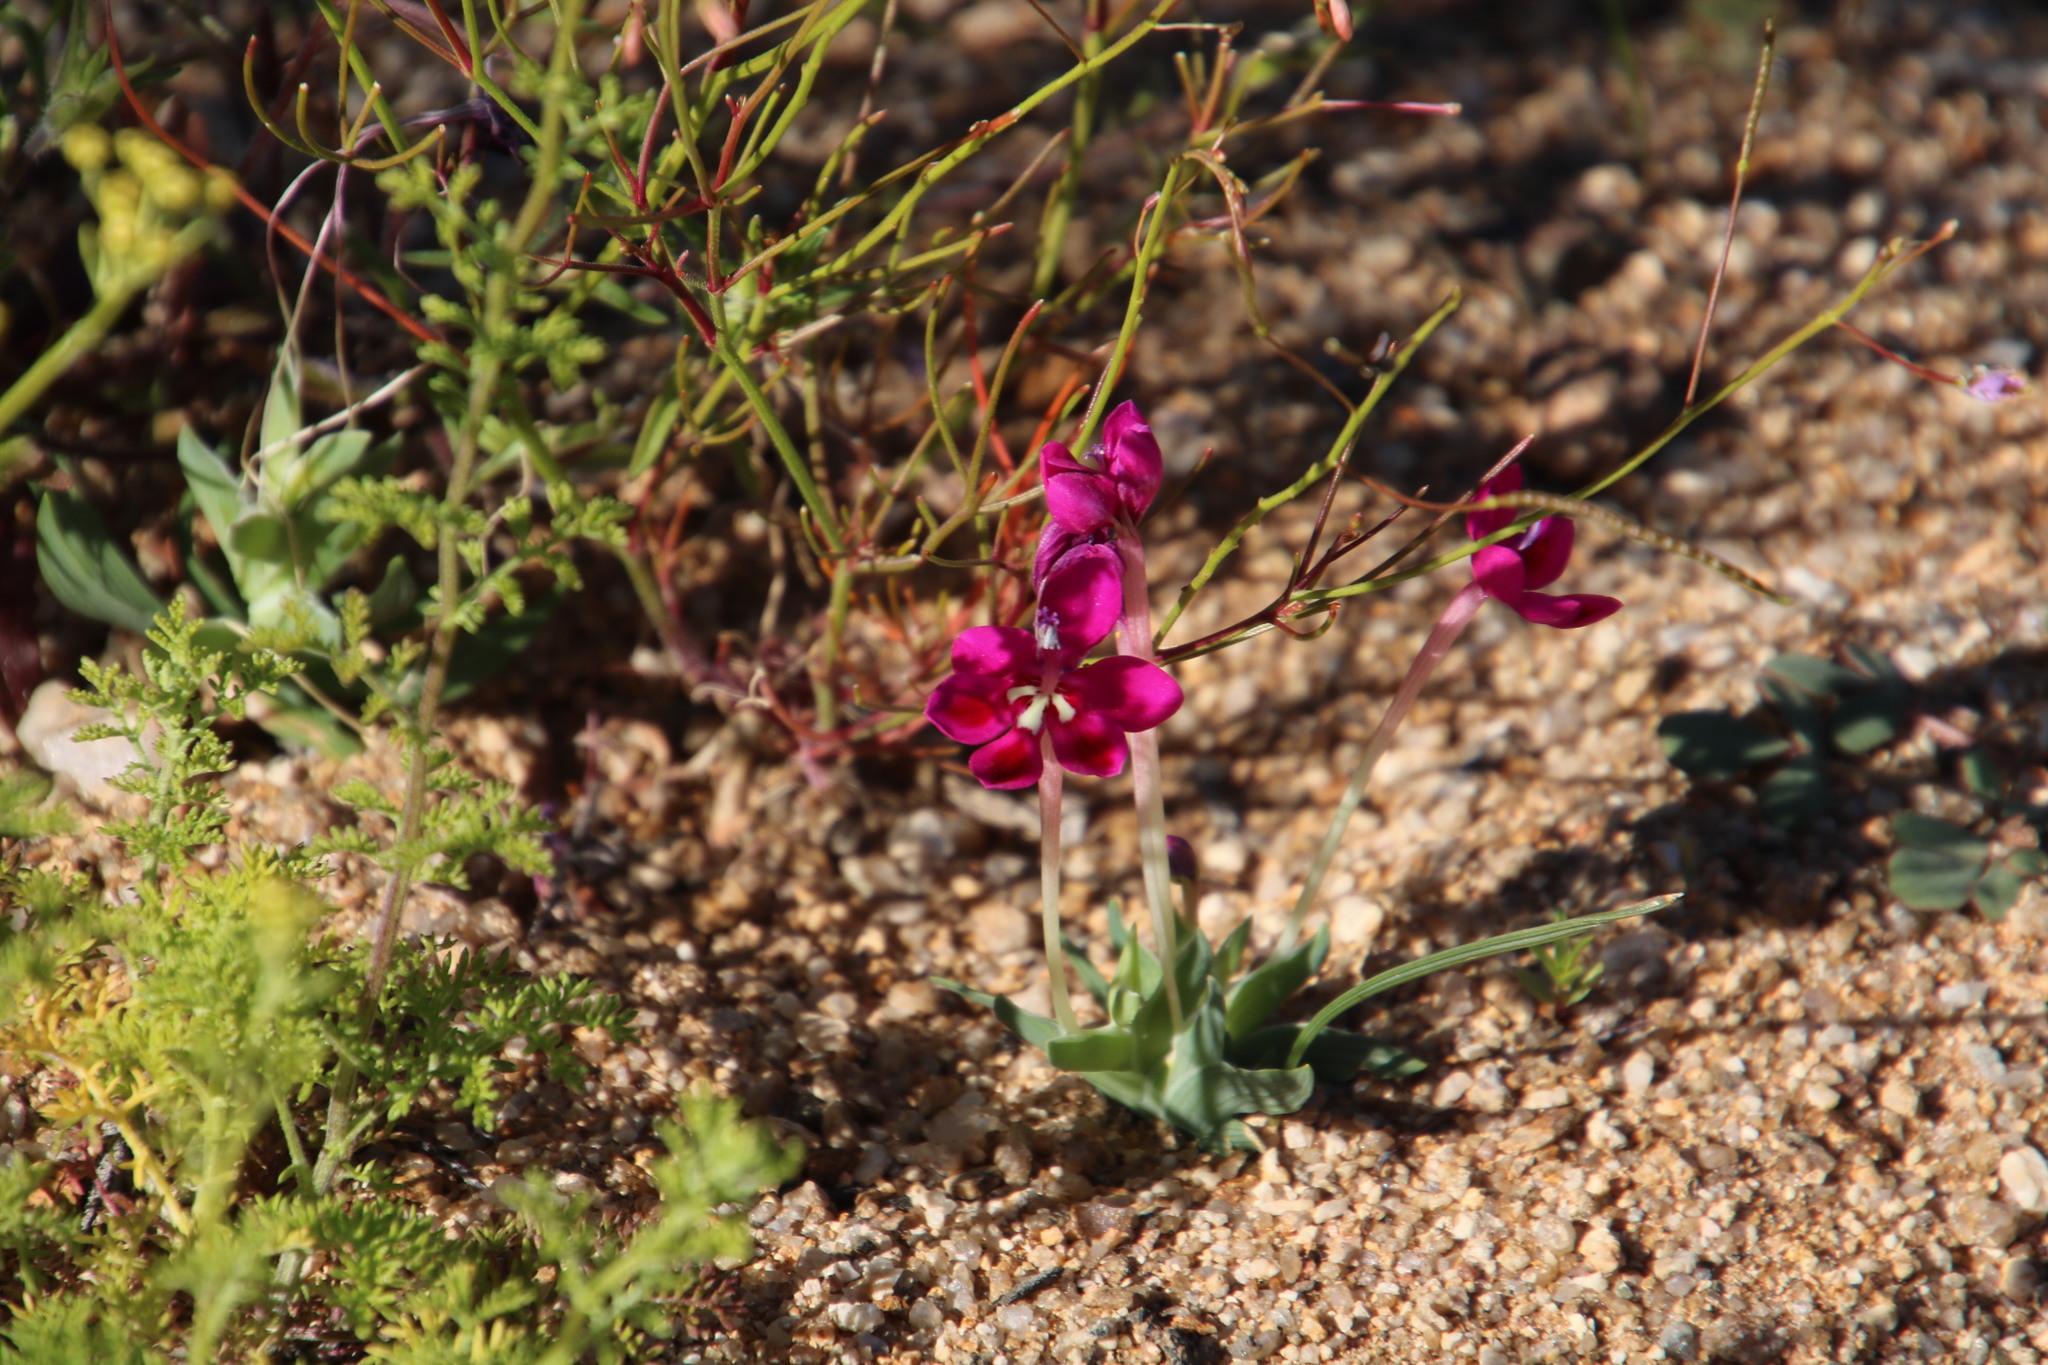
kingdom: Plantae
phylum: Tracheophyta
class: Liliopsida
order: Asparagales
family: Iridaceae
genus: Lapeirousia
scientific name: Lapeirousia silenoides
